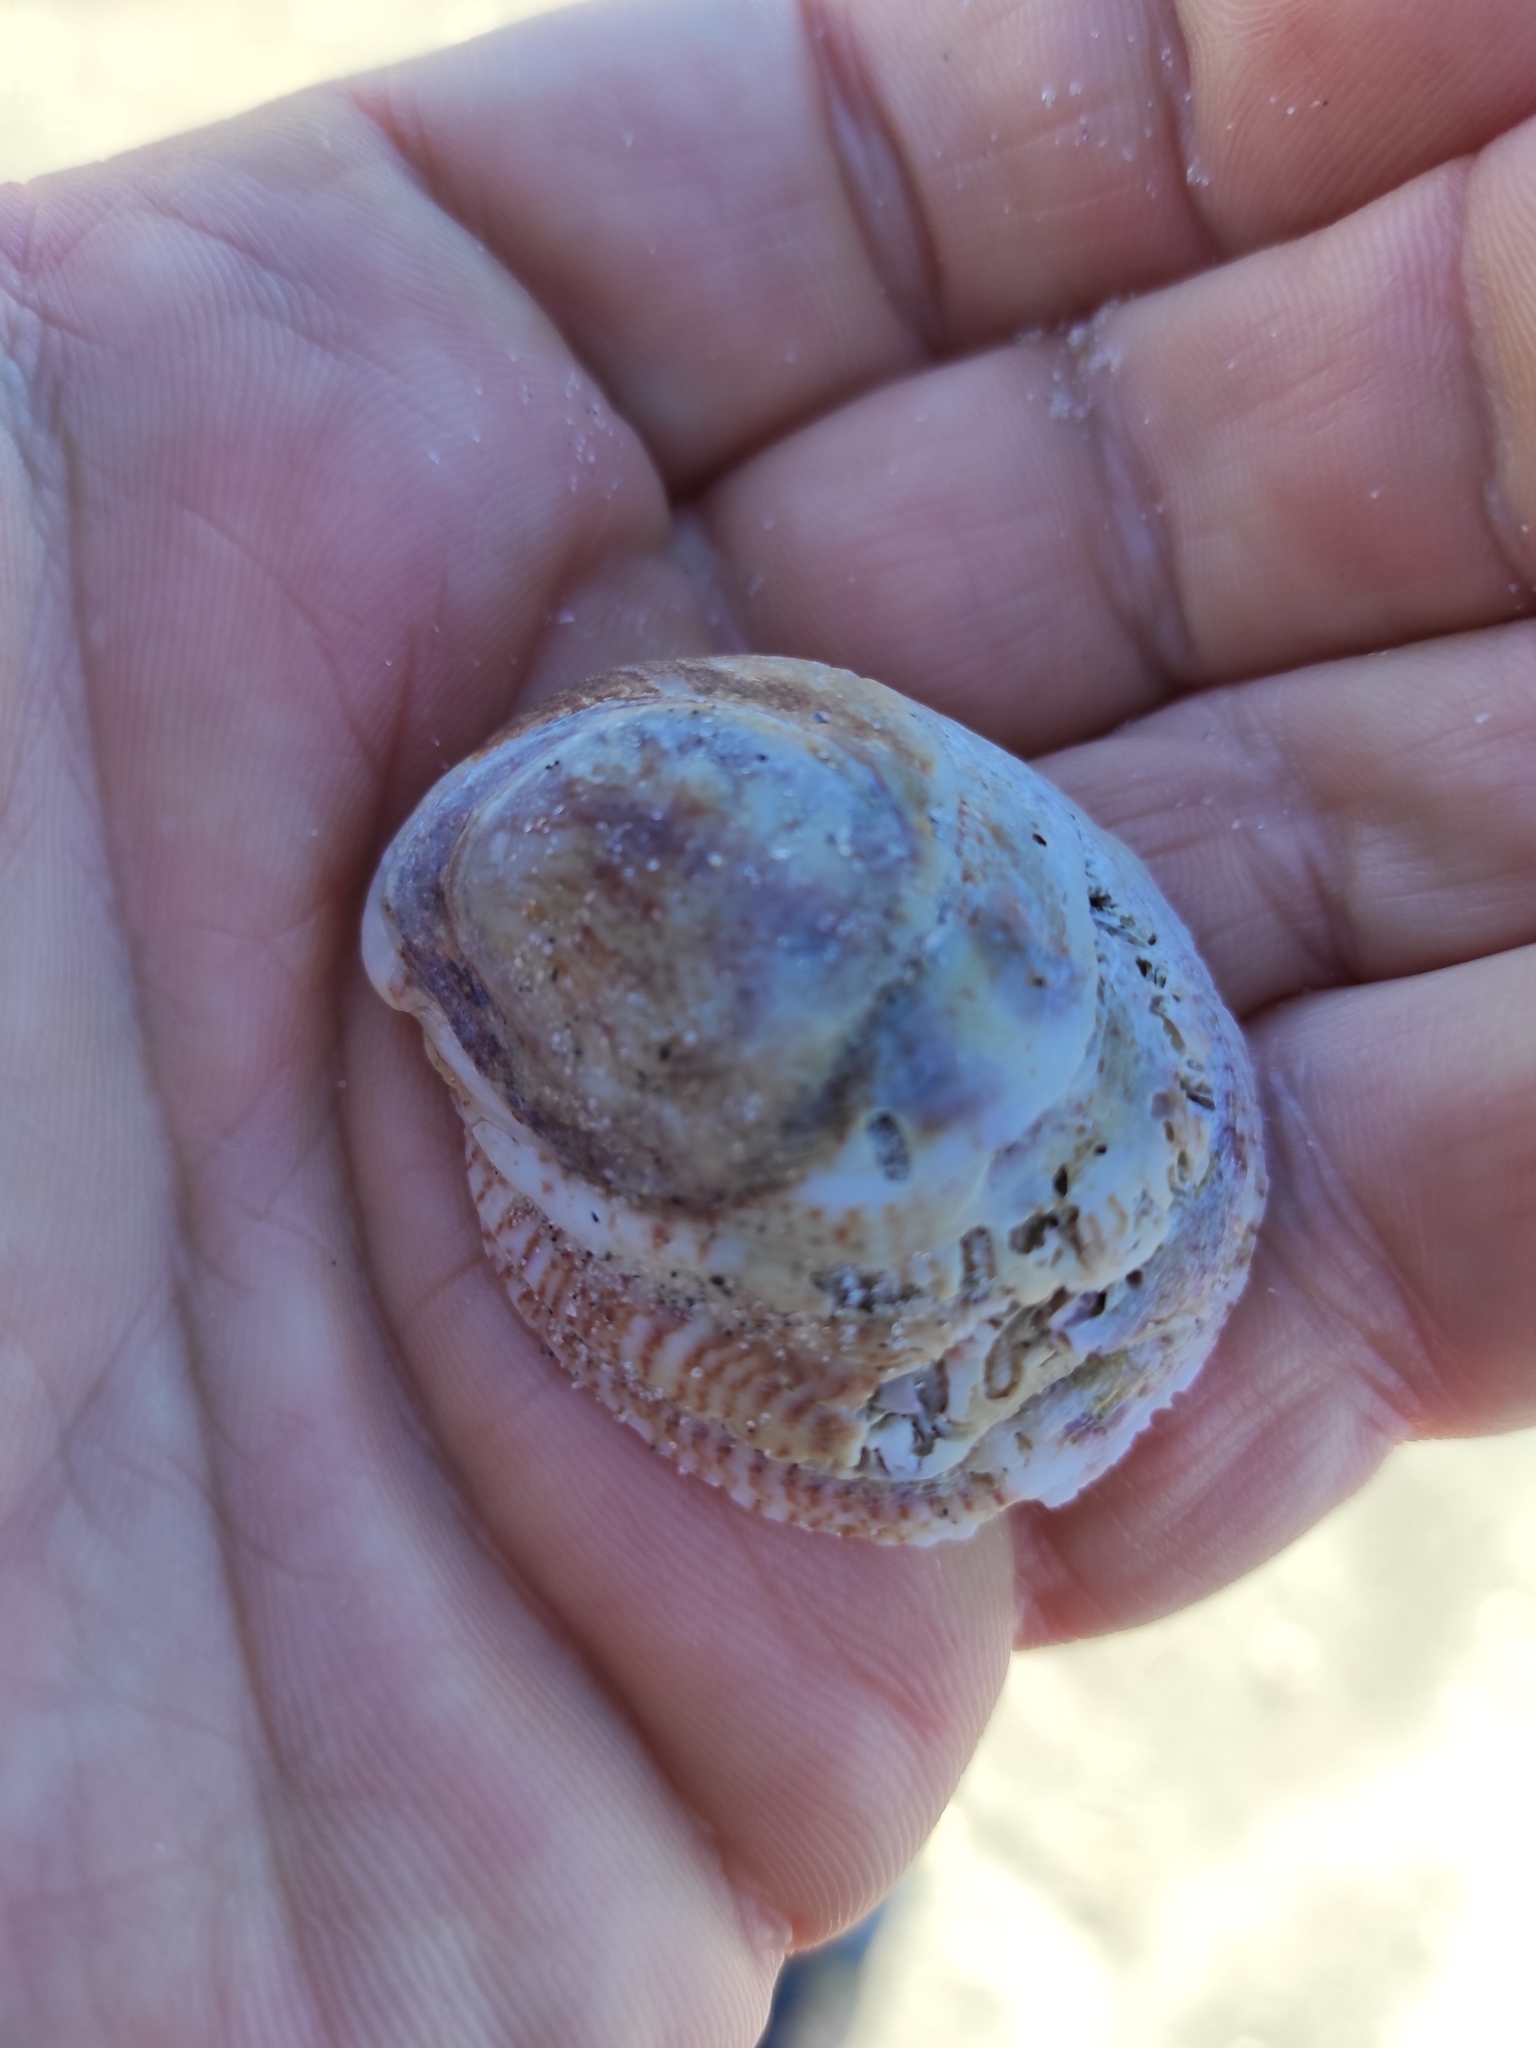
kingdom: Animalia
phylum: Mollusca
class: Gastropoda
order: Littorinimorpha
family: Calyptraeidae
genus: Crepidula
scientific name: Crepidula fornicata
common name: Slipper limpet
